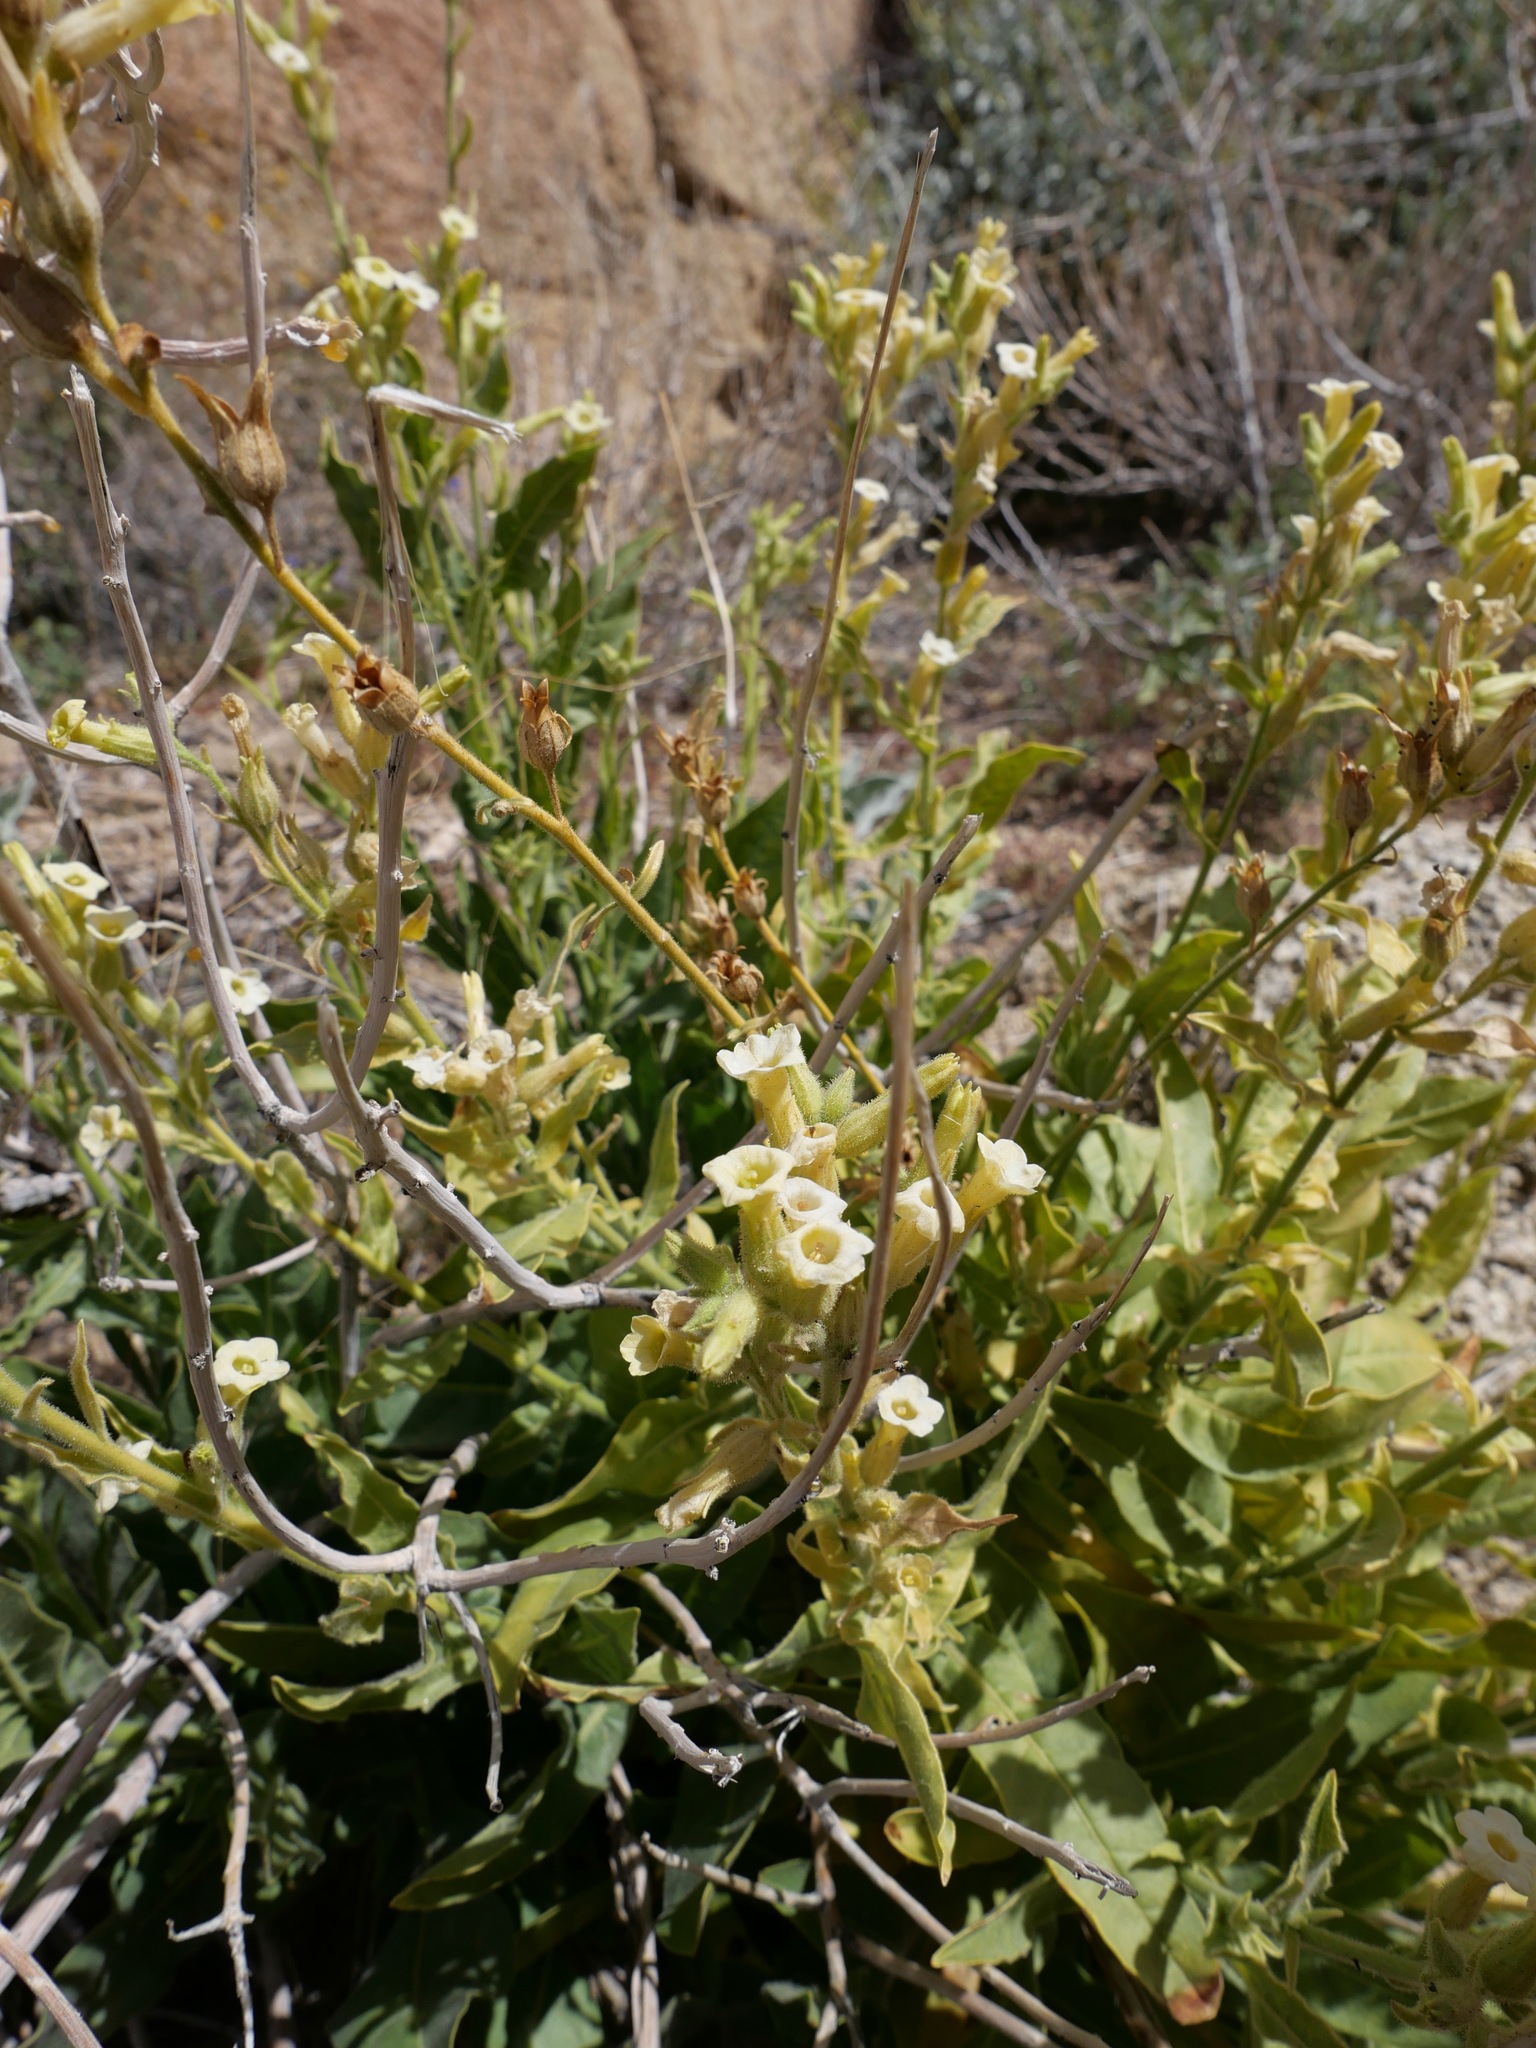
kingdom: Plantae
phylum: Tracheophyta
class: Magnoliopsida
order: Solanales
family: Solanaceae
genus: Nicotiana
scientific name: Nicotiana obtusifolia
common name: Desert tobacco
